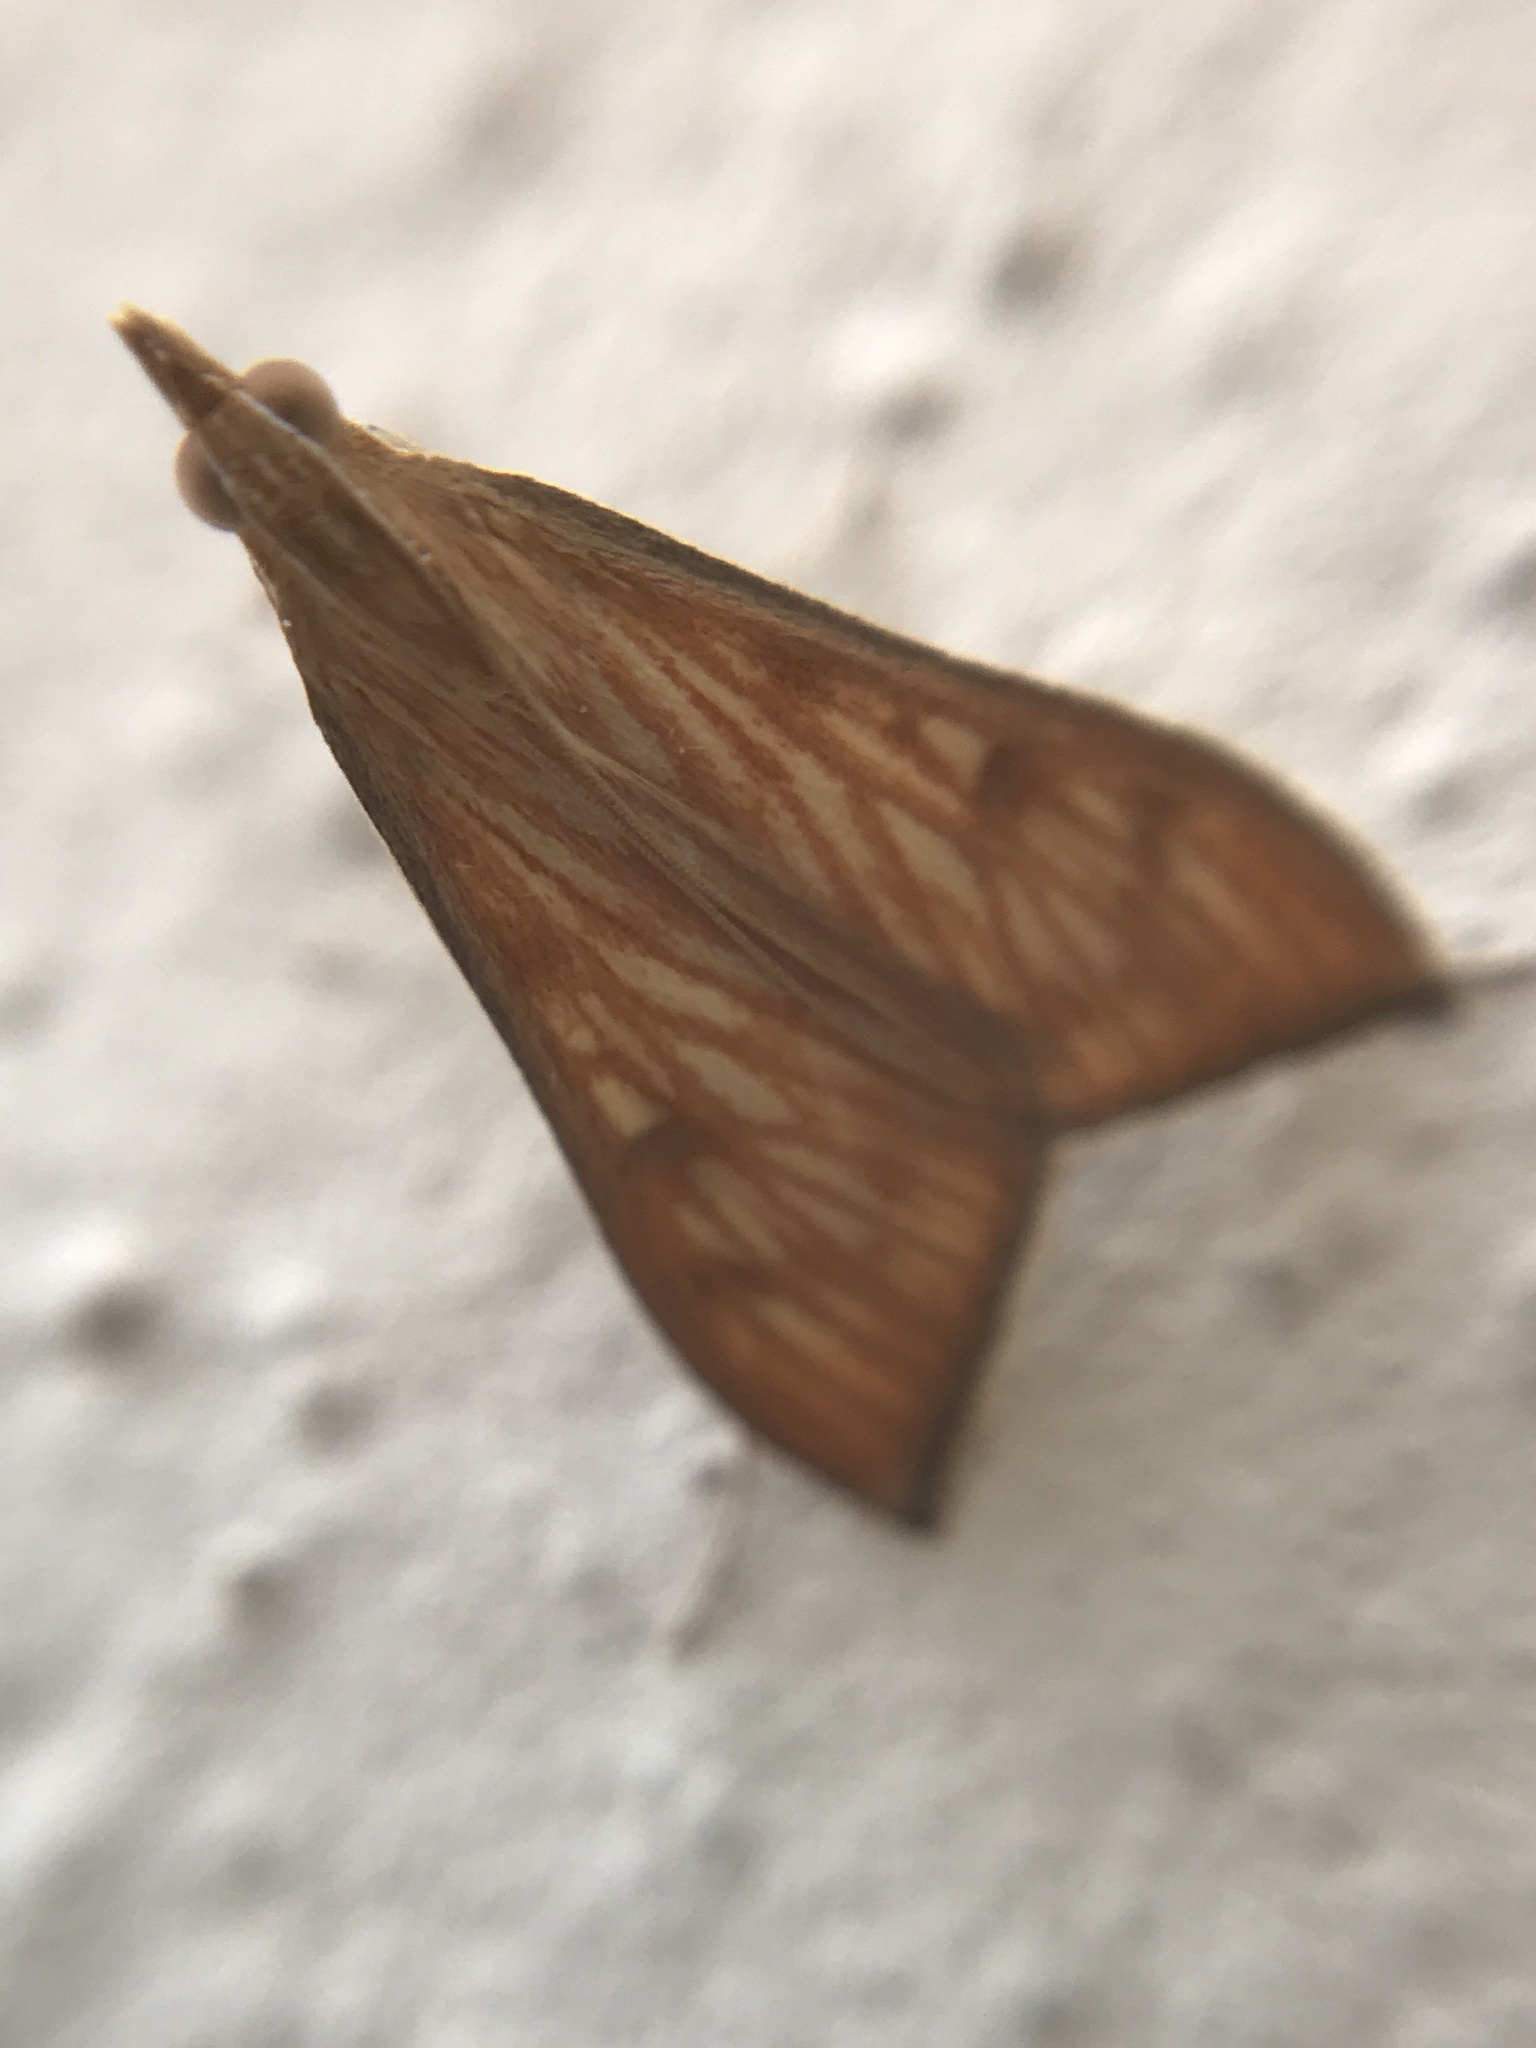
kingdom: Animalia
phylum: Arthropoda
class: Insecta
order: Lepidoptera
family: Crambidae
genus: Antigastra
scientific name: Antigastra catalaunalis
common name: Spanish dot
